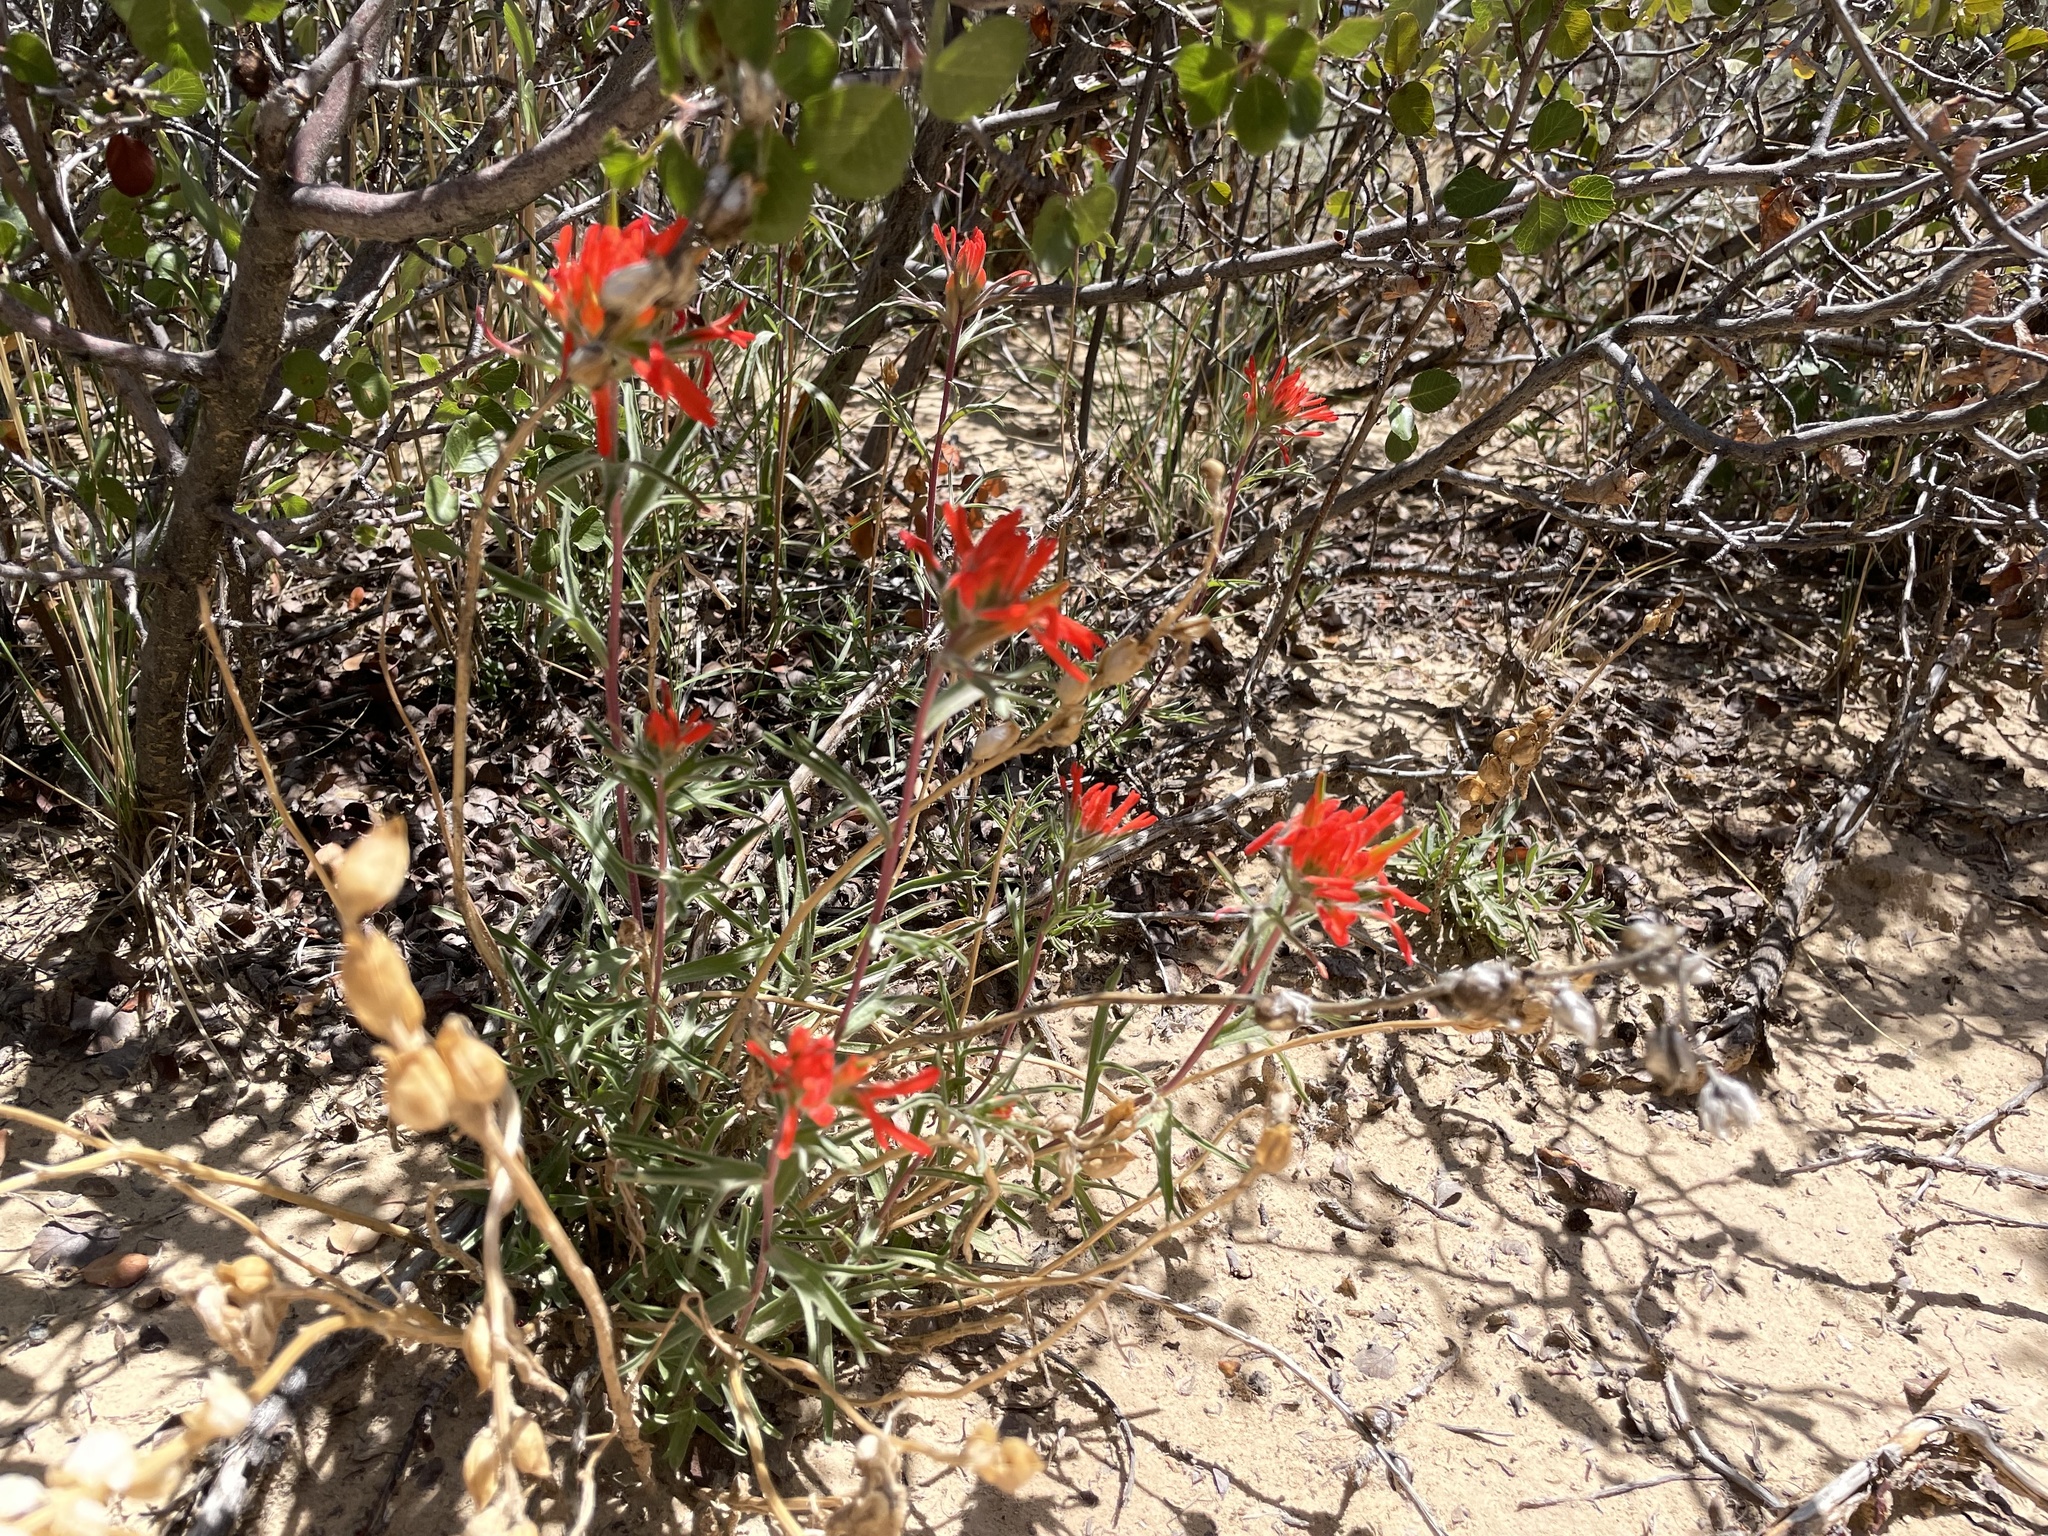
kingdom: Plantae
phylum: Tracheophyta
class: Magnoliopsida
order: Lamiales
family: Orobanchaceae
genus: Castilleja
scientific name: Castilleja chromosa
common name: Desert paintbrush
